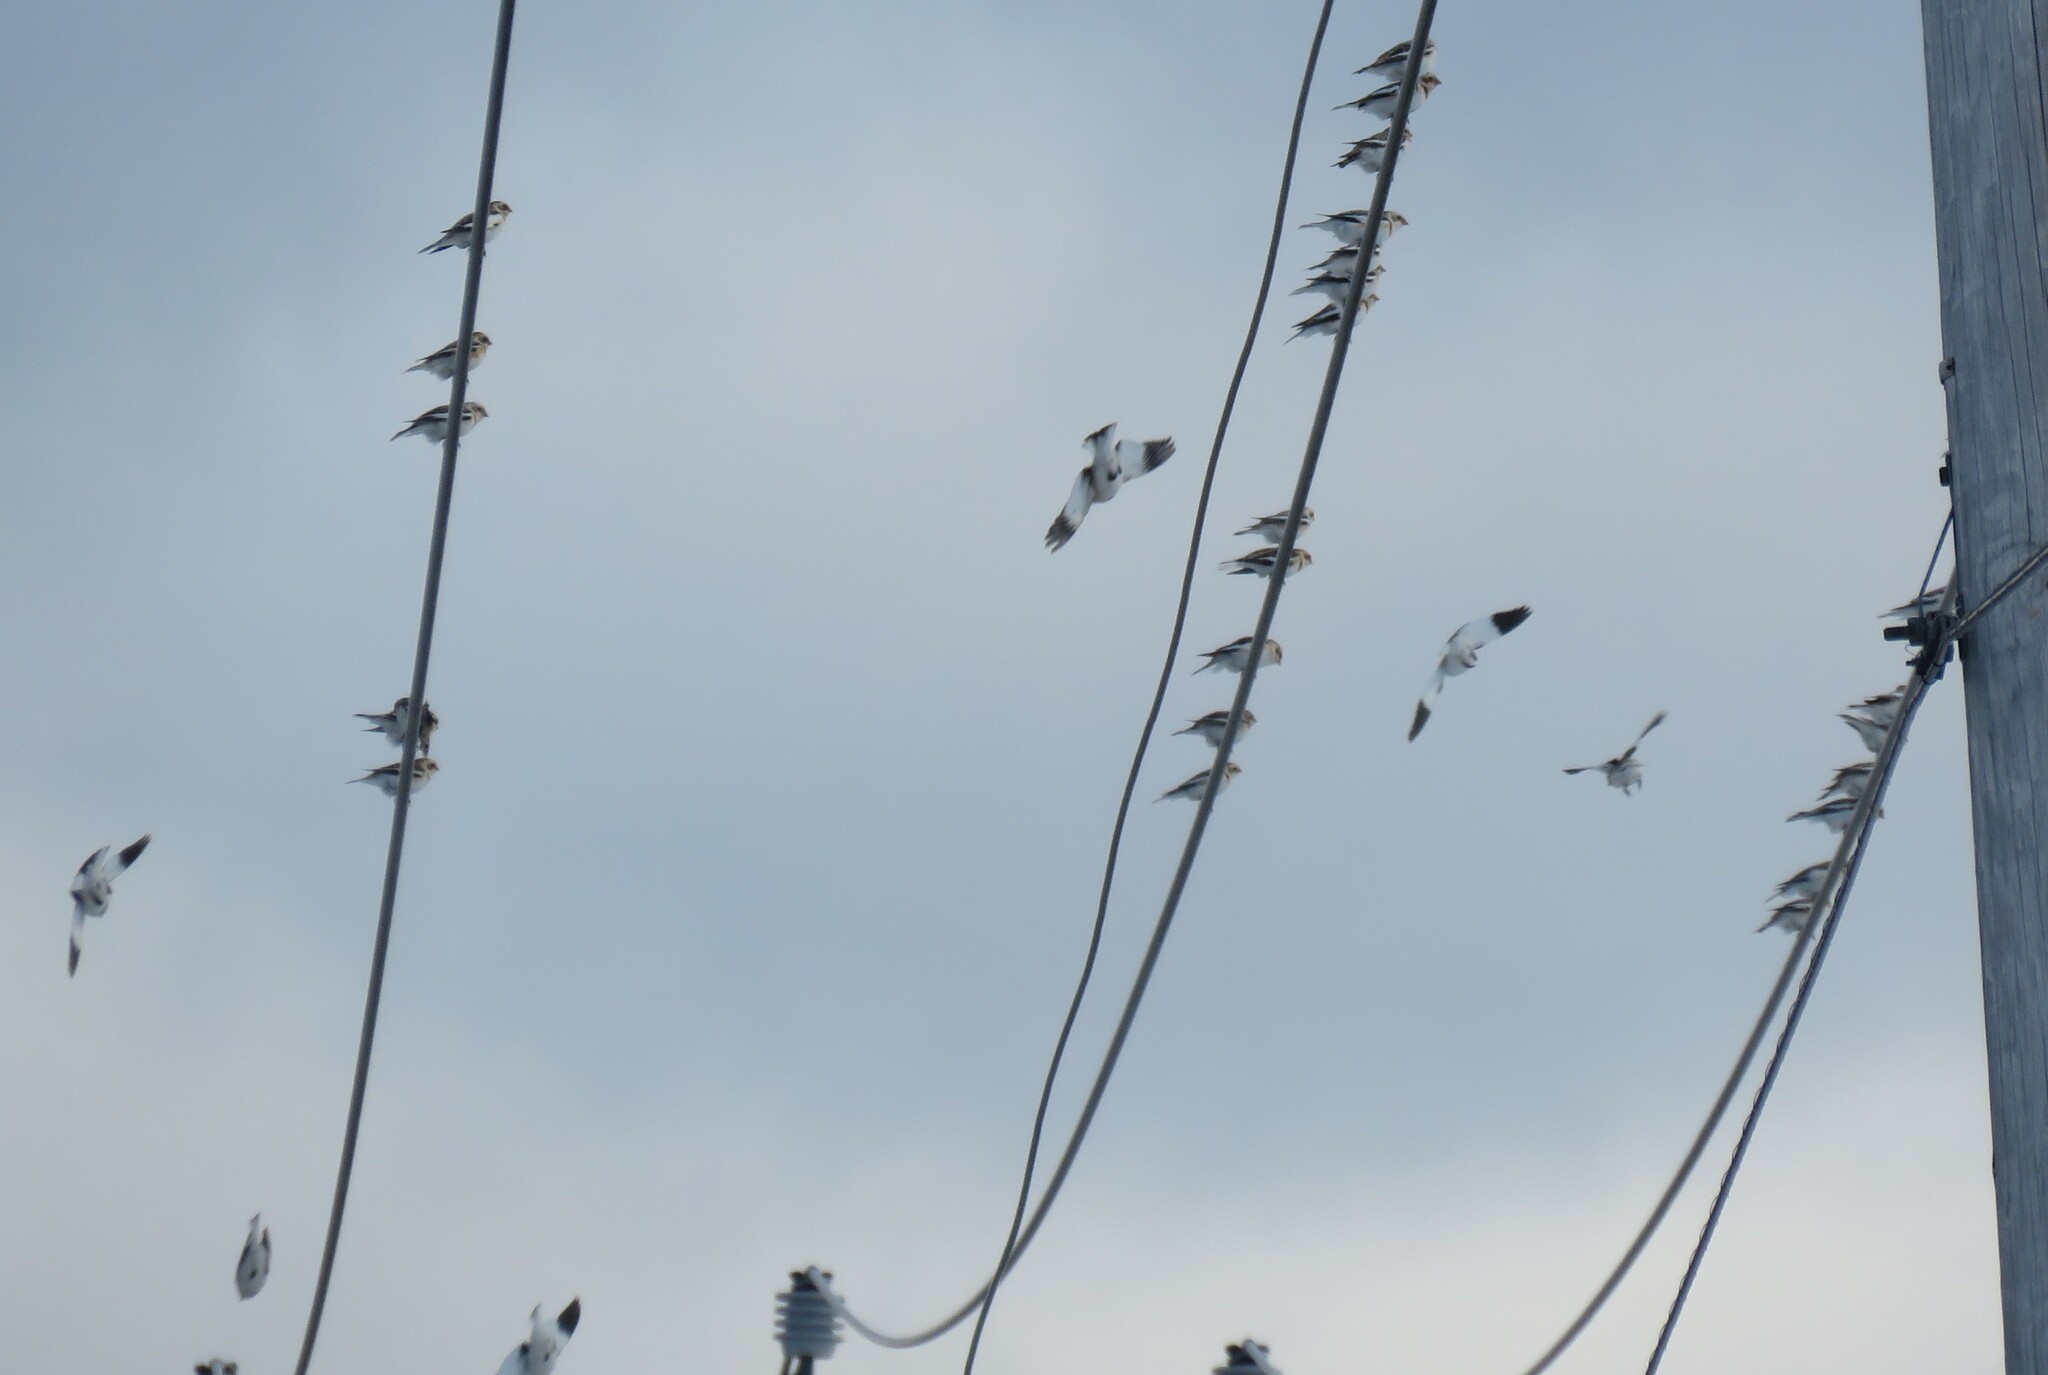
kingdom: Animalia
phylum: Chordata
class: Aves
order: Passeriformes
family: Calcariidae
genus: Plectrophenax
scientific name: Plectrophenax nivalis
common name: Snow bunting
